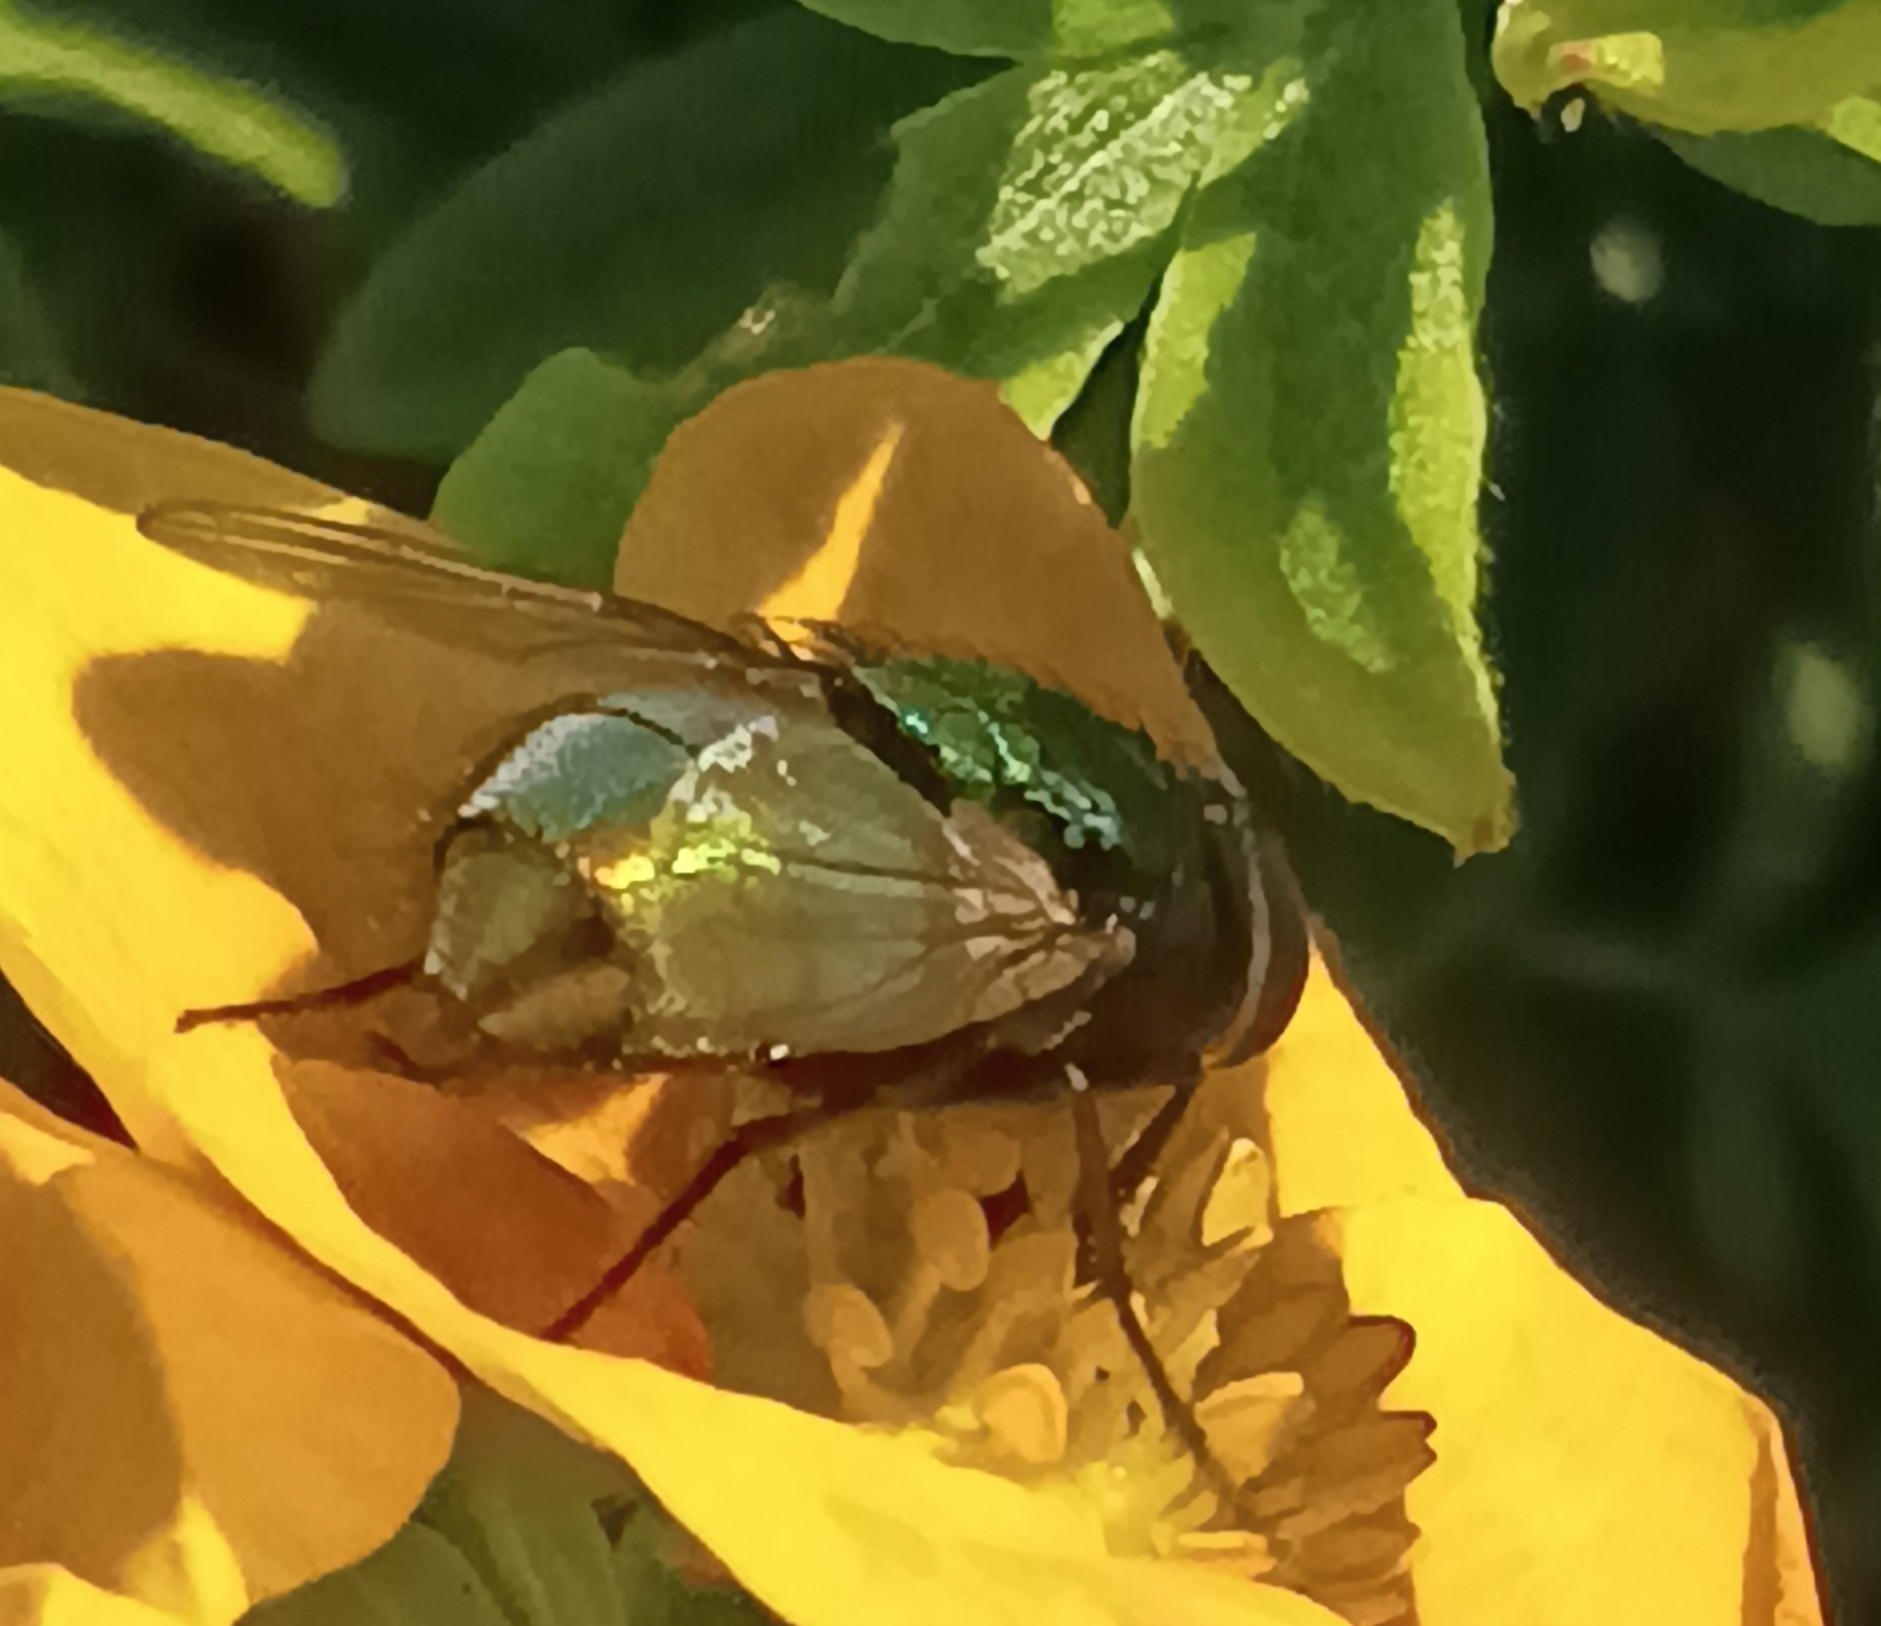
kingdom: Animalia
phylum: Arthropoda
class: Insecta
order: Diptera
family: Calliphoridae
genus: Lucilia
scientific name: Lucilia
